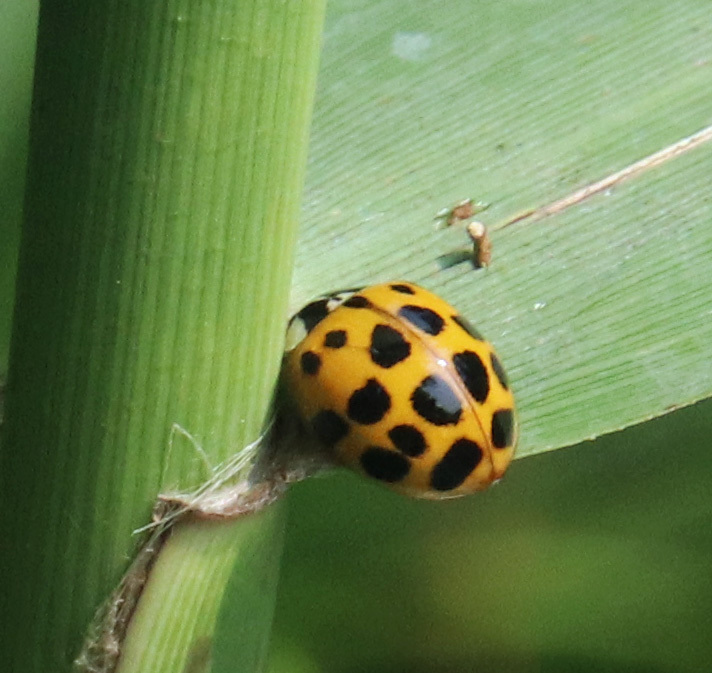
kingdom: Animalia
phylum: Arthropoda
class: Insecta
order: Coleoptera
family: Coccinellidae
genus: Harmonia
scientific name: Harmonia axyridis
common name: Harlequin ladybird
